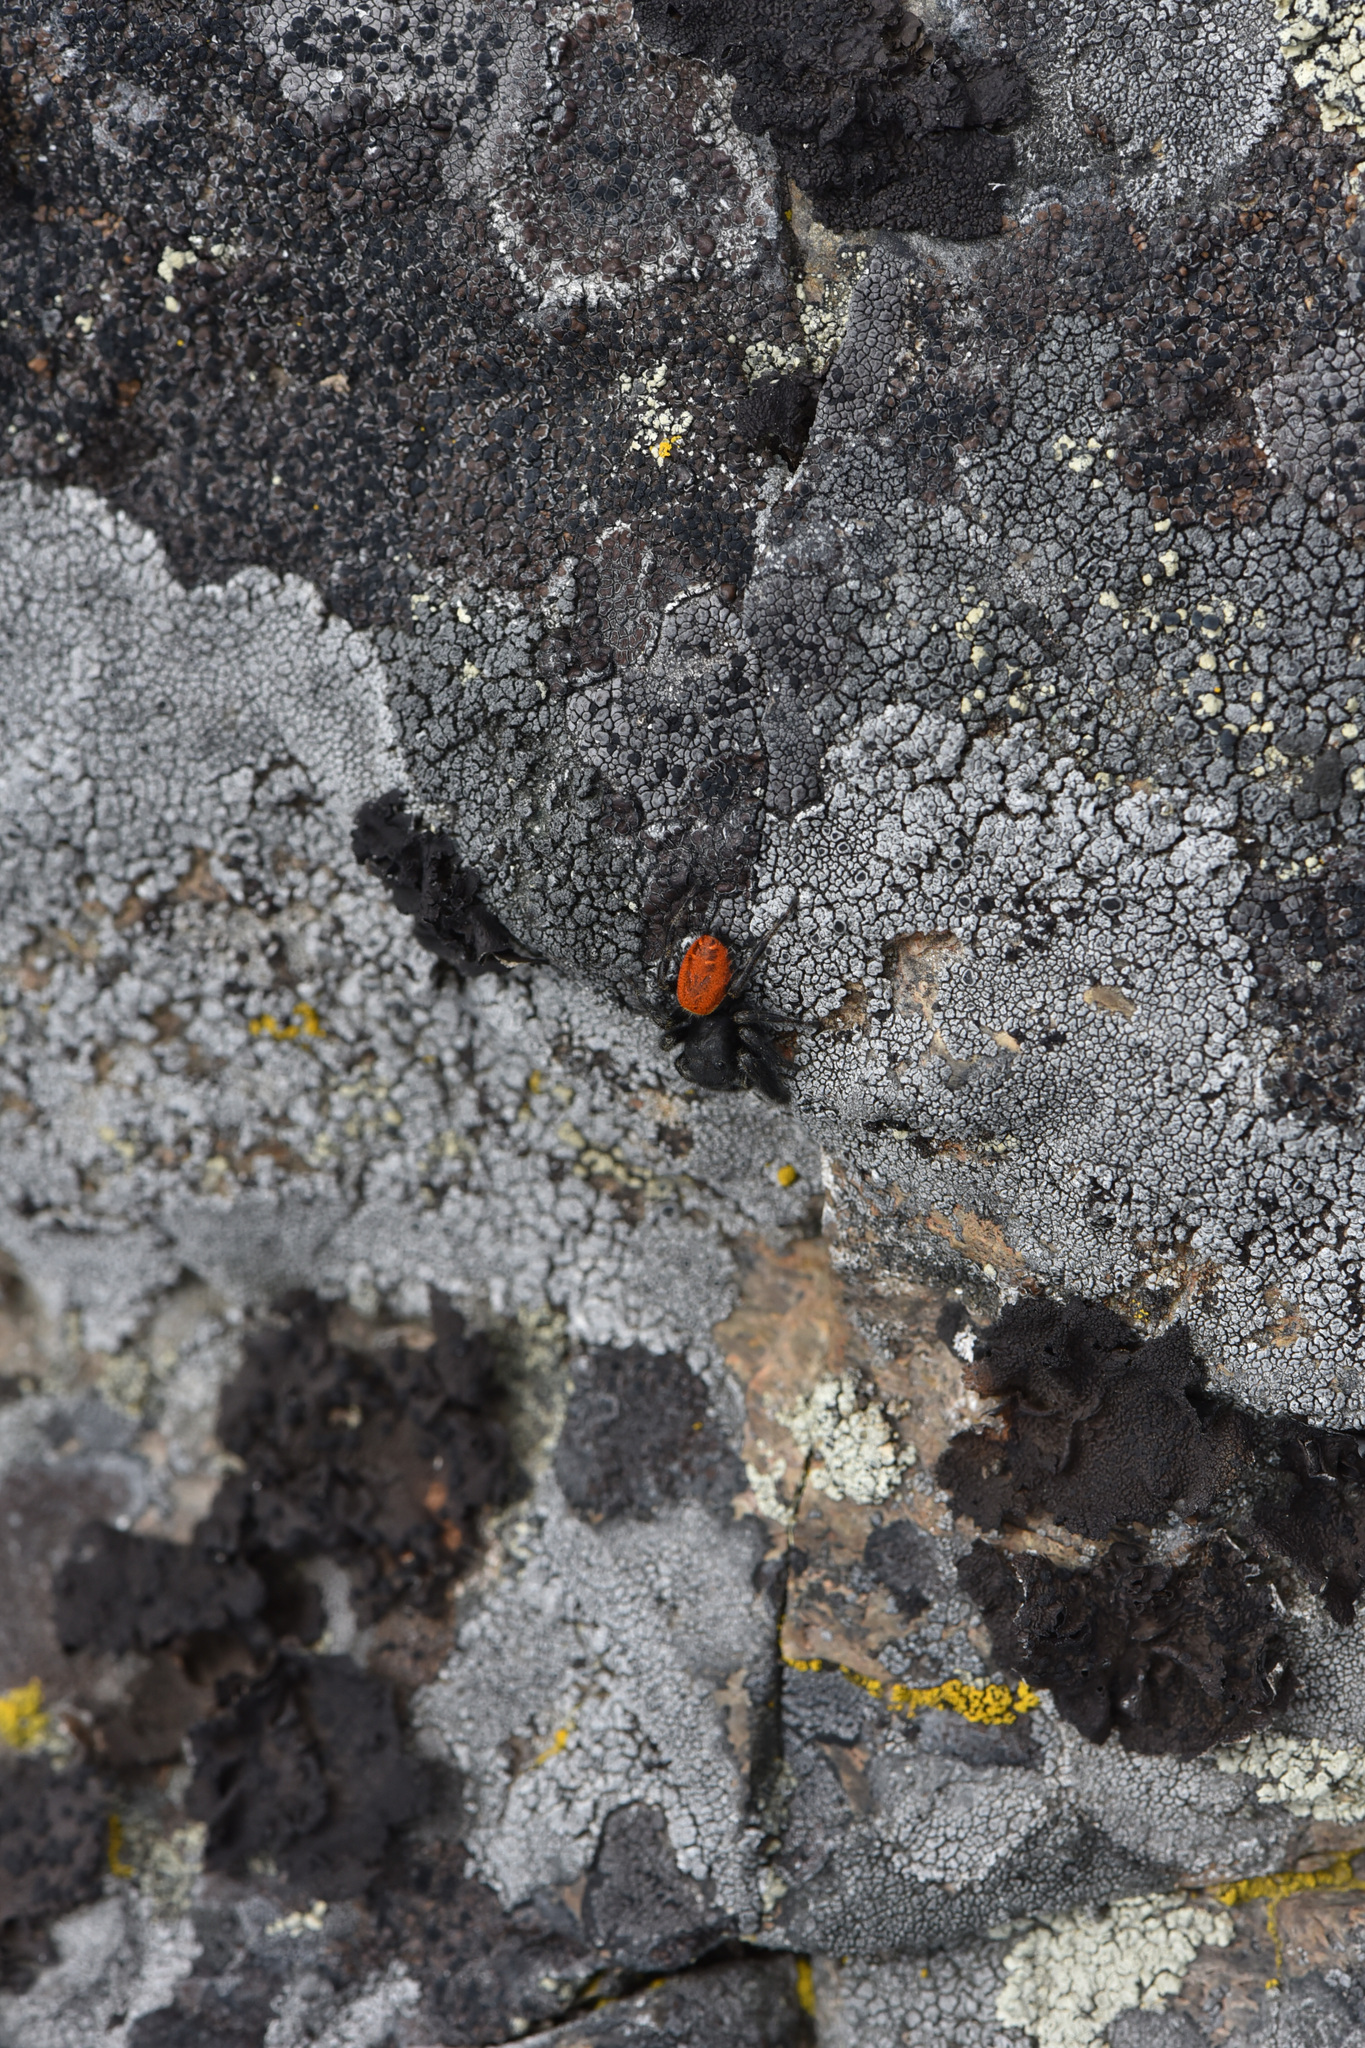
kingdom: Animalia
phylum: Arthropoda
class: Arachnida
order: Araneae
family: Salticidae
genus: Phidippus
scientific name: Phidippus johnsoni
